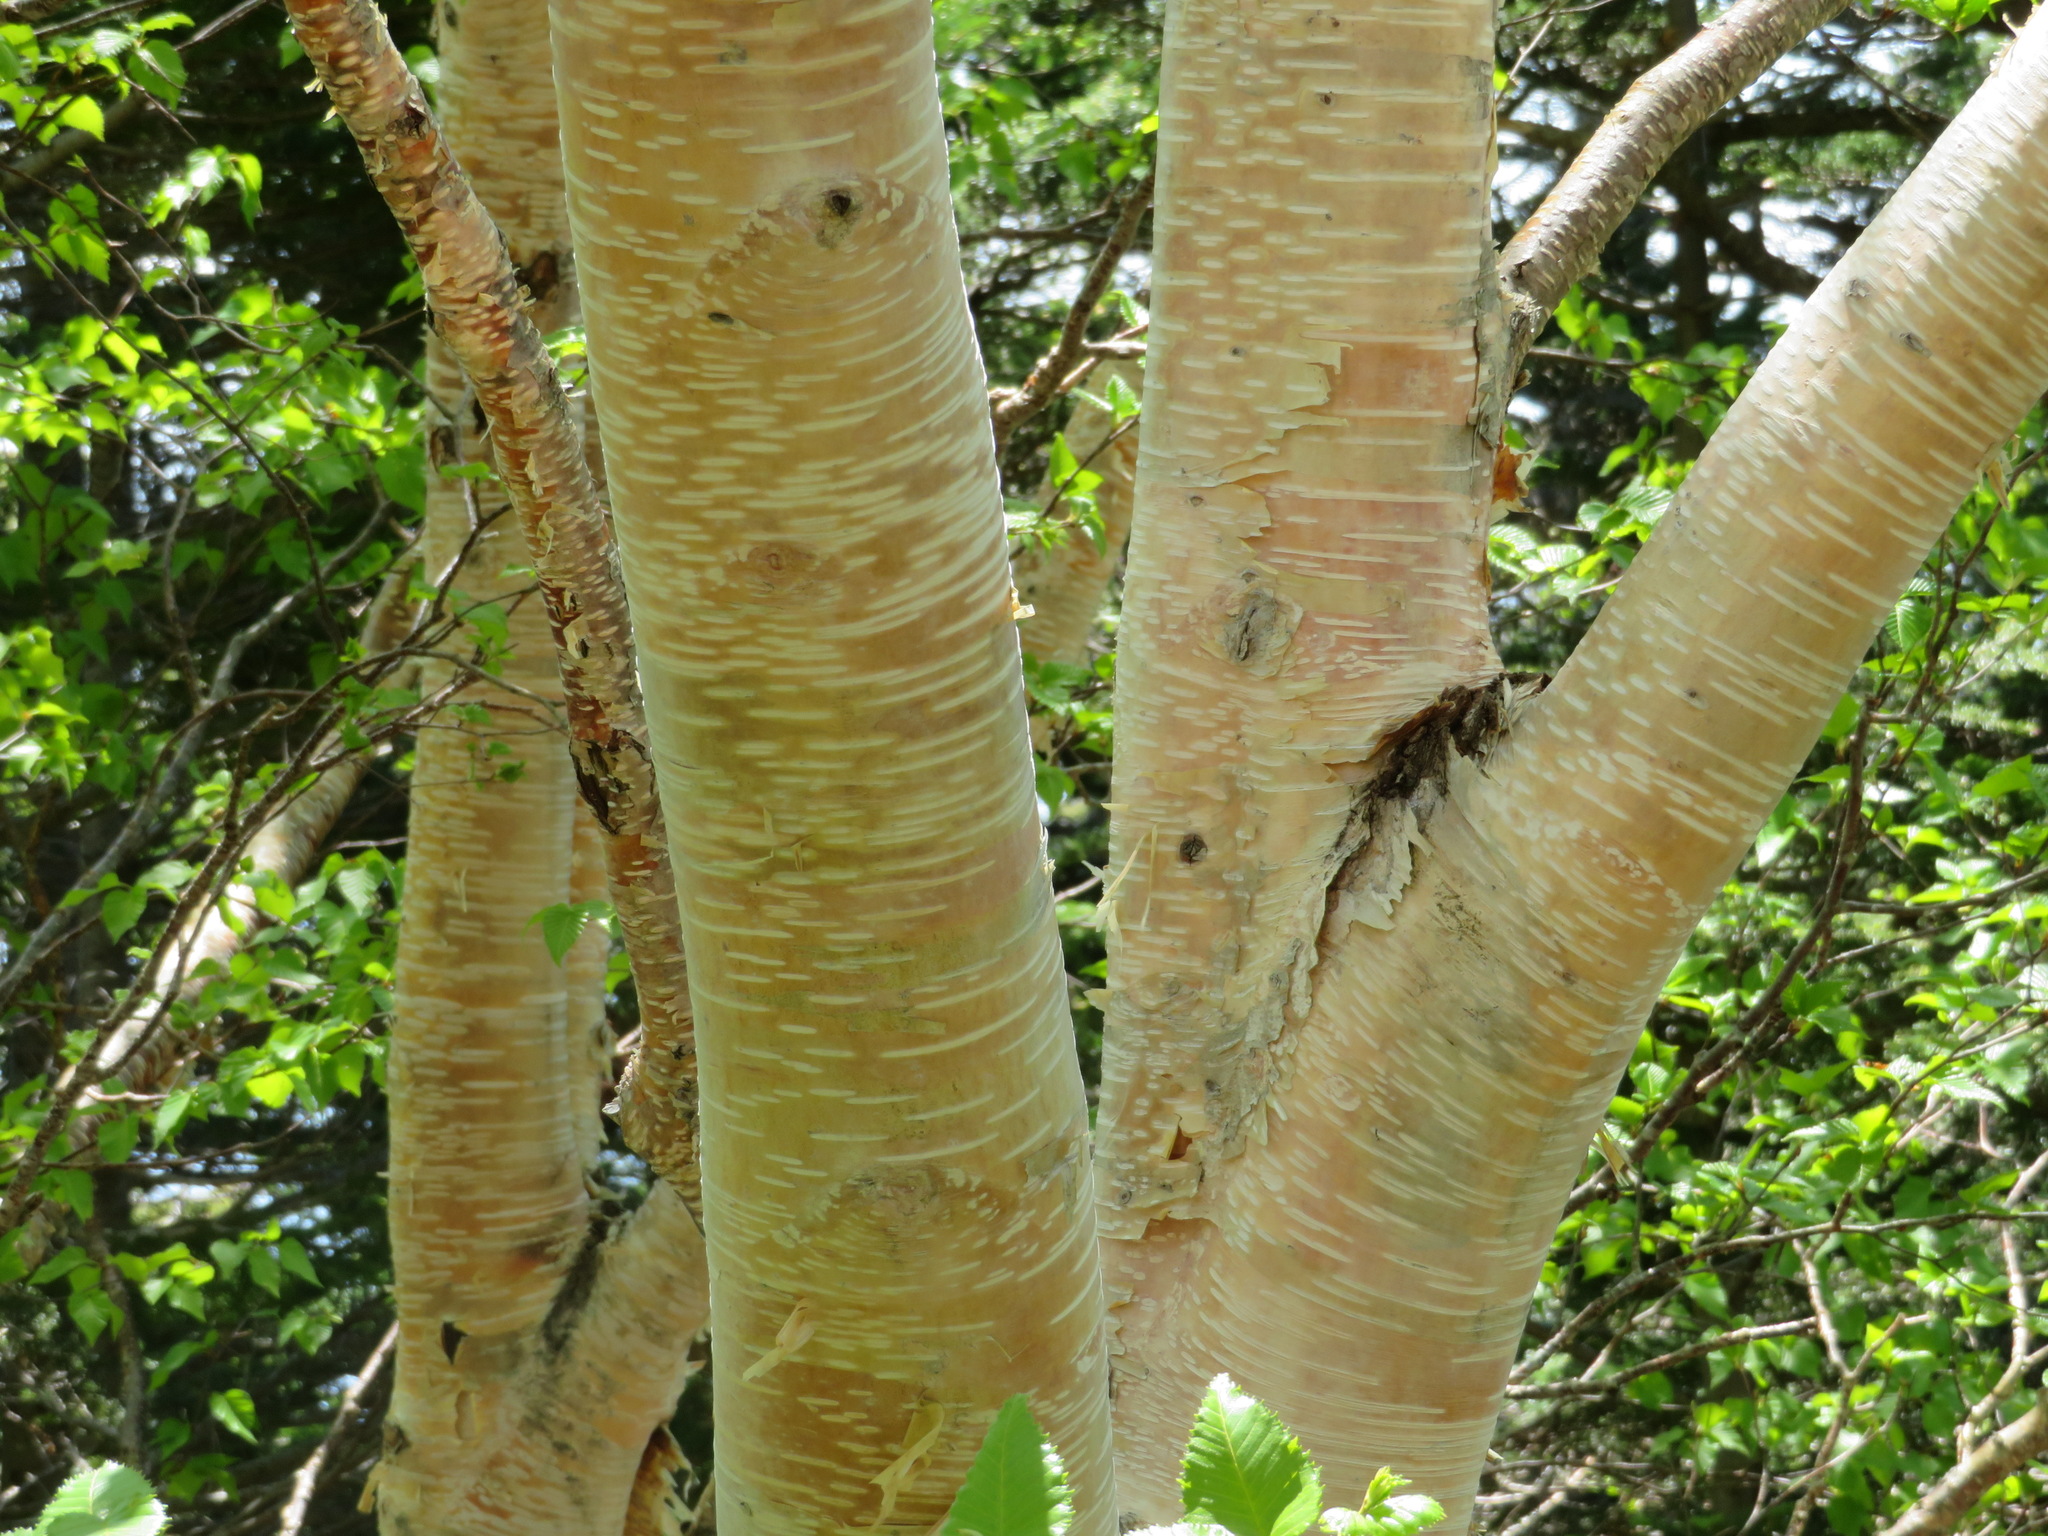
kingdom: Plantae
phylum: Tracheophyta
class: Magnoliopsida
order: Fagales
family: Betulaceae
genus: Betula
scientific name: Betula ermanii
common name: Erman's birch
